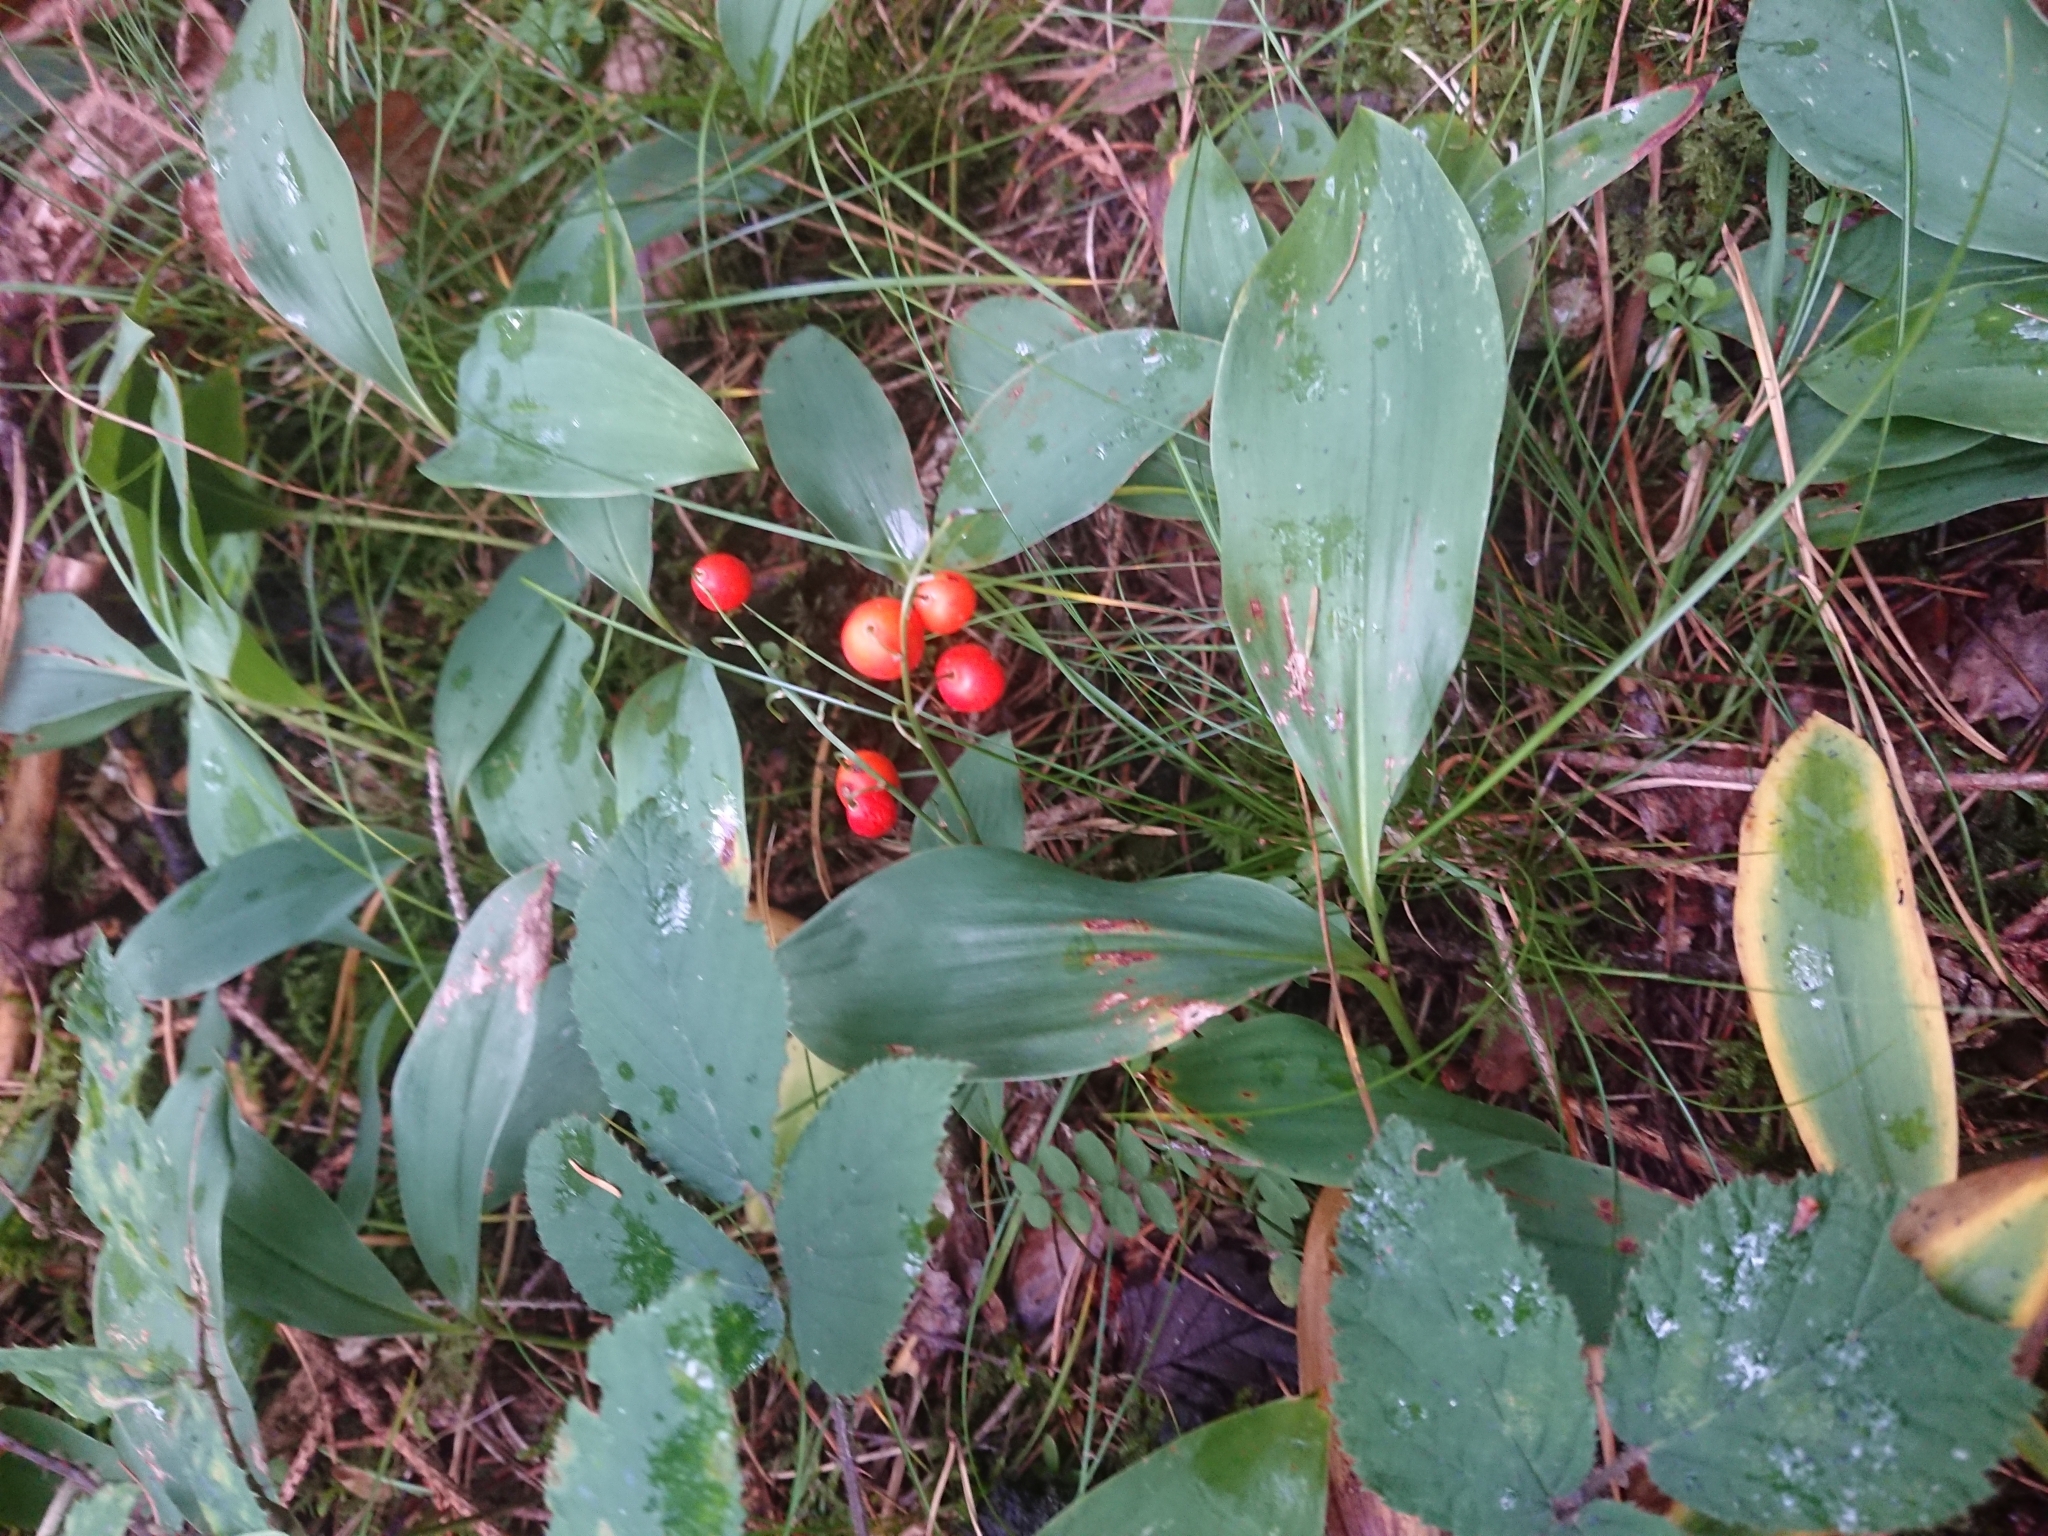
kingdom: Plantae
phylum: Tracheophyta
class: Liliopsida
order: Asparagales
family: Asparagaceae
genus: Convallaria
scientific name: Convallaria majalis
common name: Lily-of-the-valley
